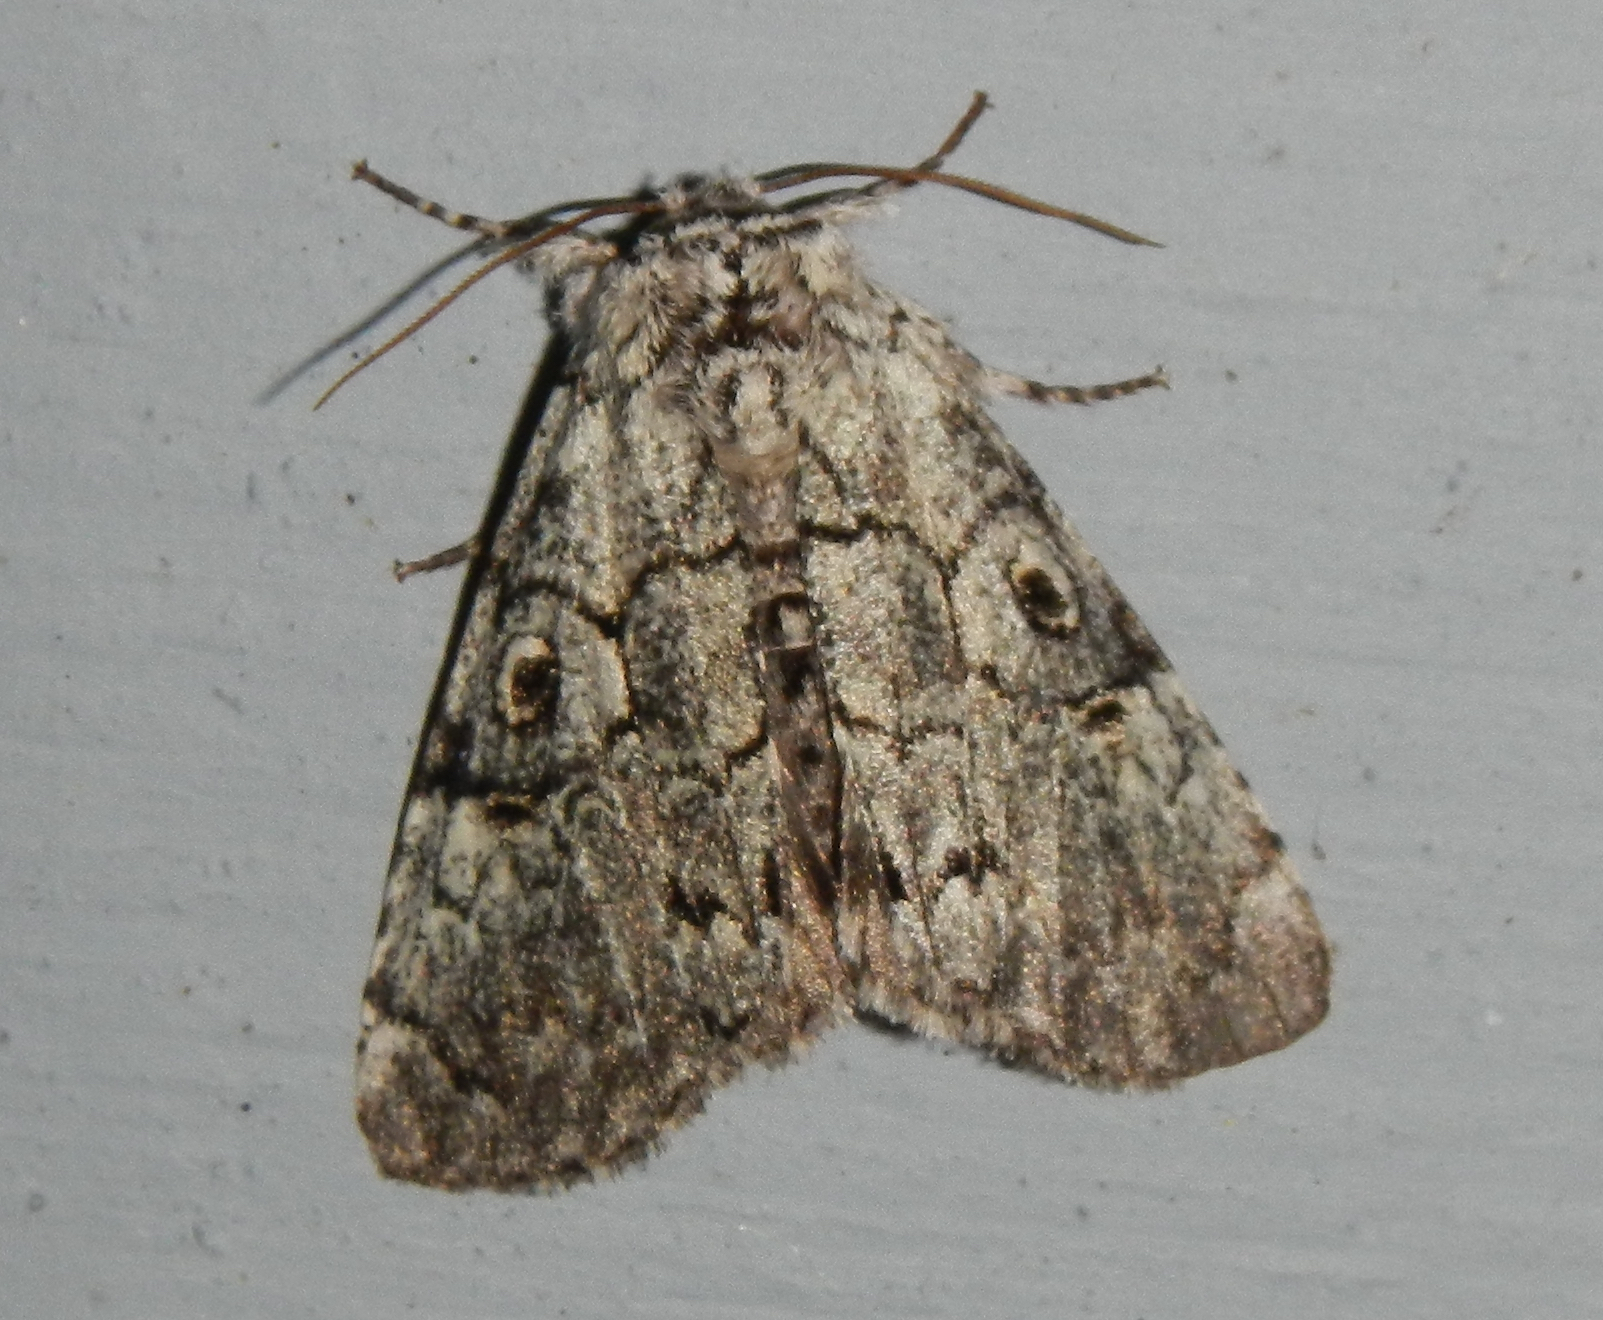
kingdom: Animalia
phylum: Arthropoda
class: Insecta
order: Lepidoptera
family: Noctuidae
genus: Charadra
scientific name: Charadra deridens
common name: Marbled tuffet
